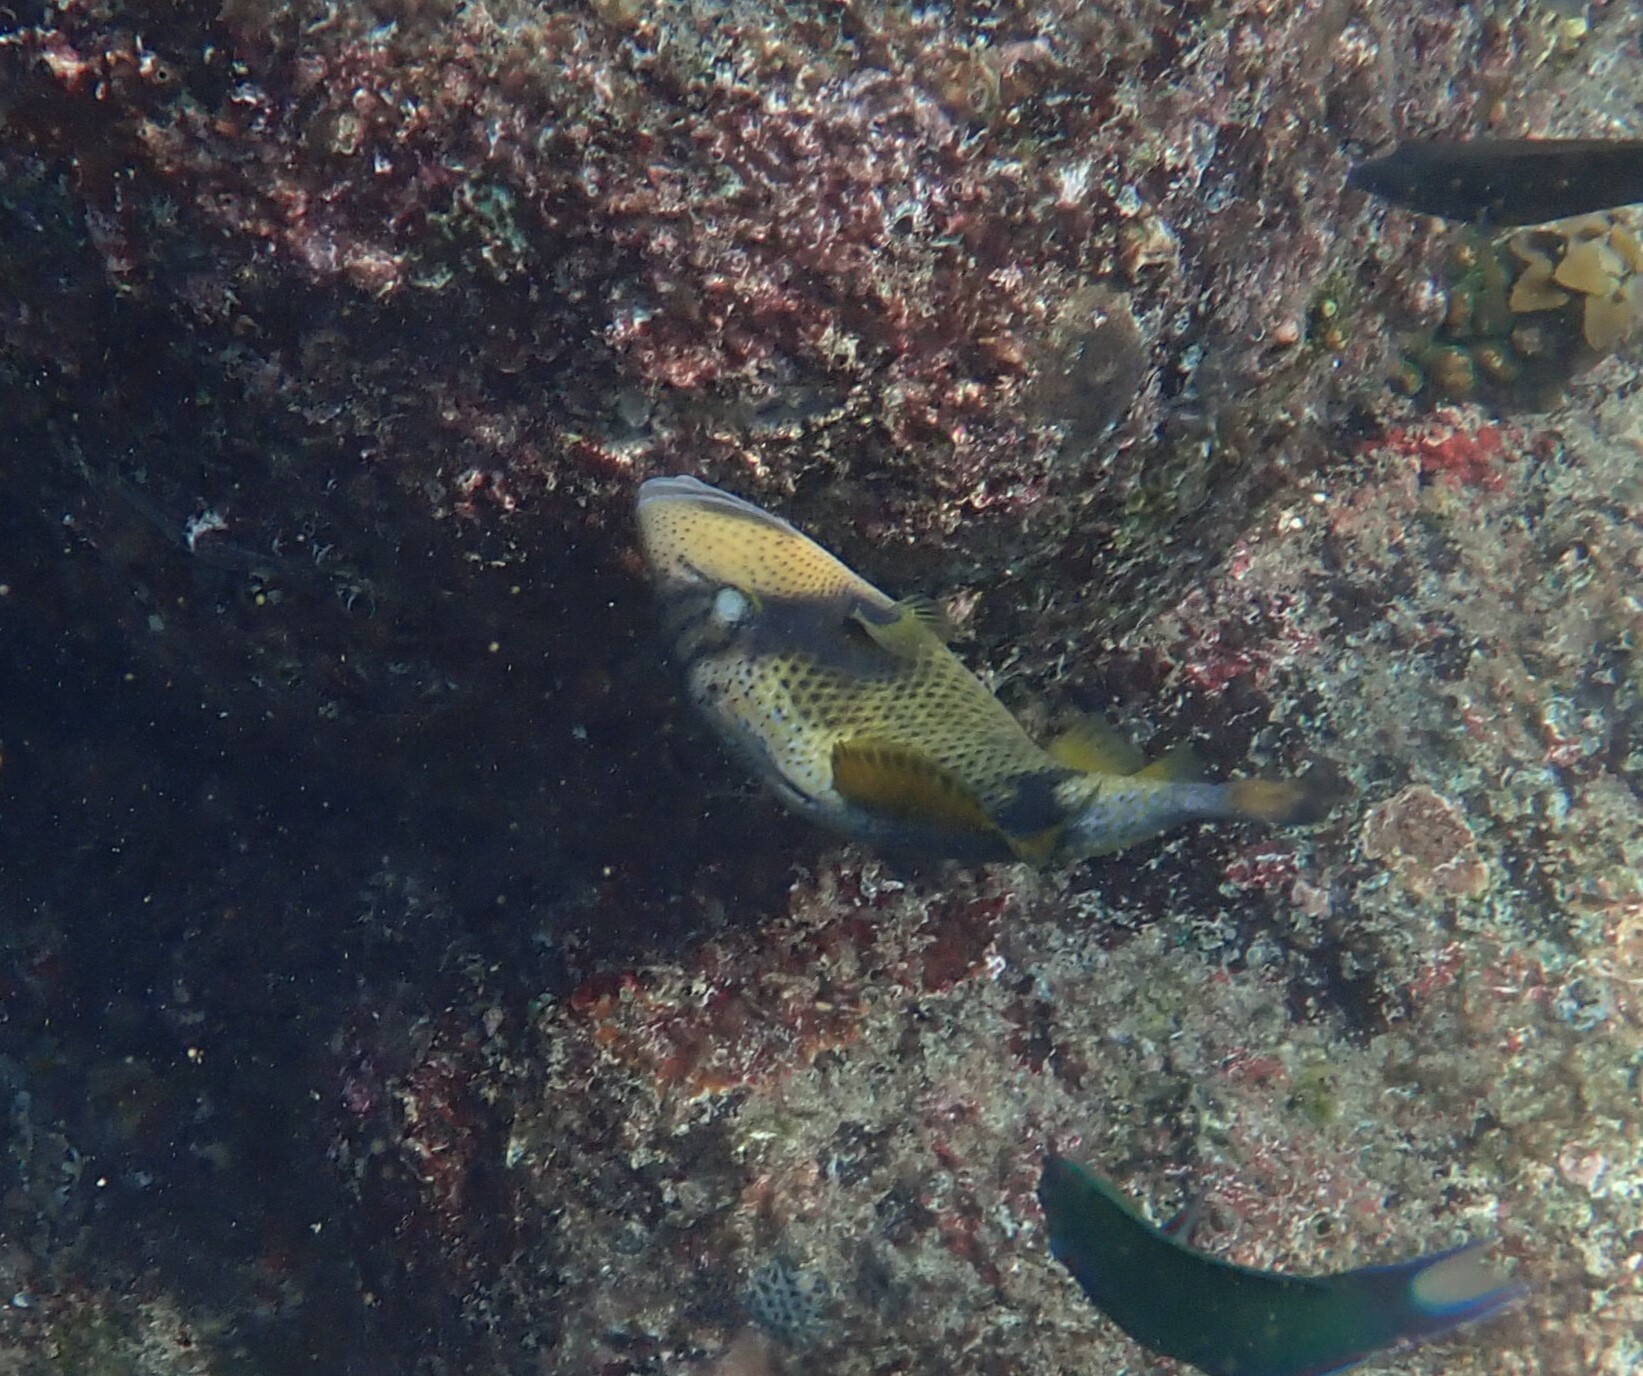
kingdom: Animalia
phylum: Chordata
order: Tetraodontiformes
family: Balistidae
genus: Balistoides
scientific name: Balistoides viridescens
